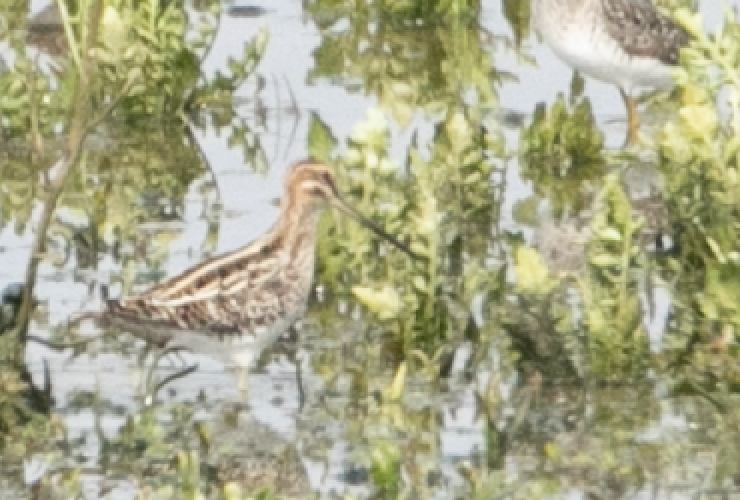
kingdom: Animalia
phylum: Chordata
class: Aves
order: Charadriiformes
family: Scolopacidae
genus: Gallinago
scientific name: Gallinago gallinago
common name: Common snipe
